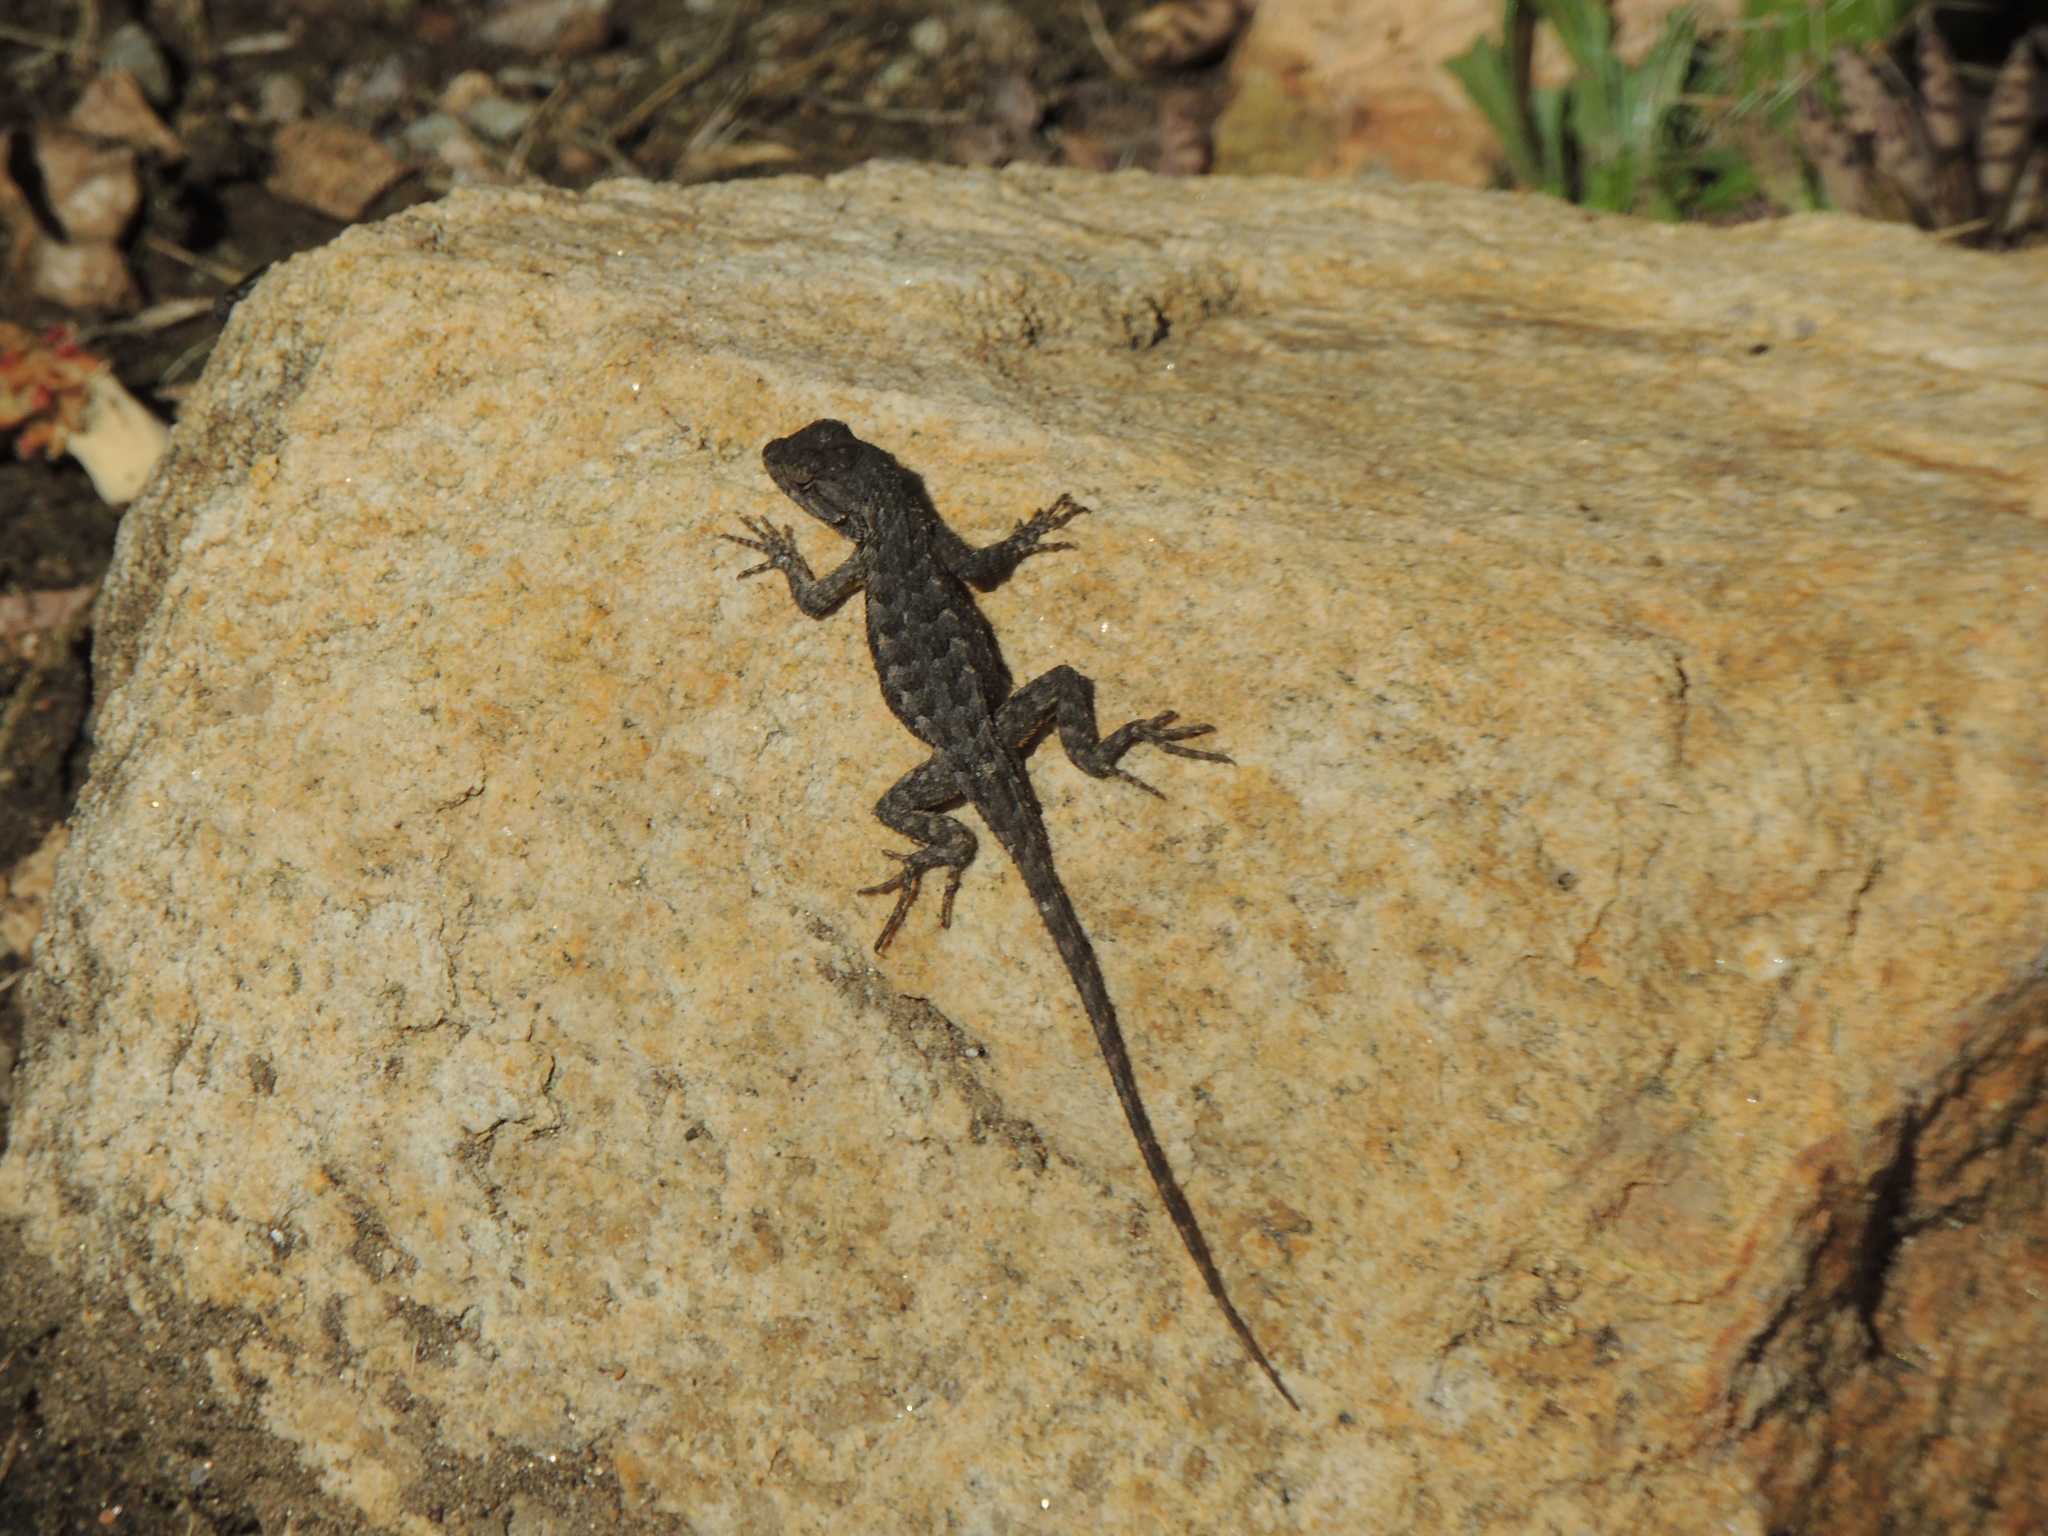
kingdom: Animalia
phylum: Chordata
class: Squamata
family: Phrynosomatidae
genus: Sceloporus
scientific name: Sceloporus occidentalis
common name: Western fence lizard
